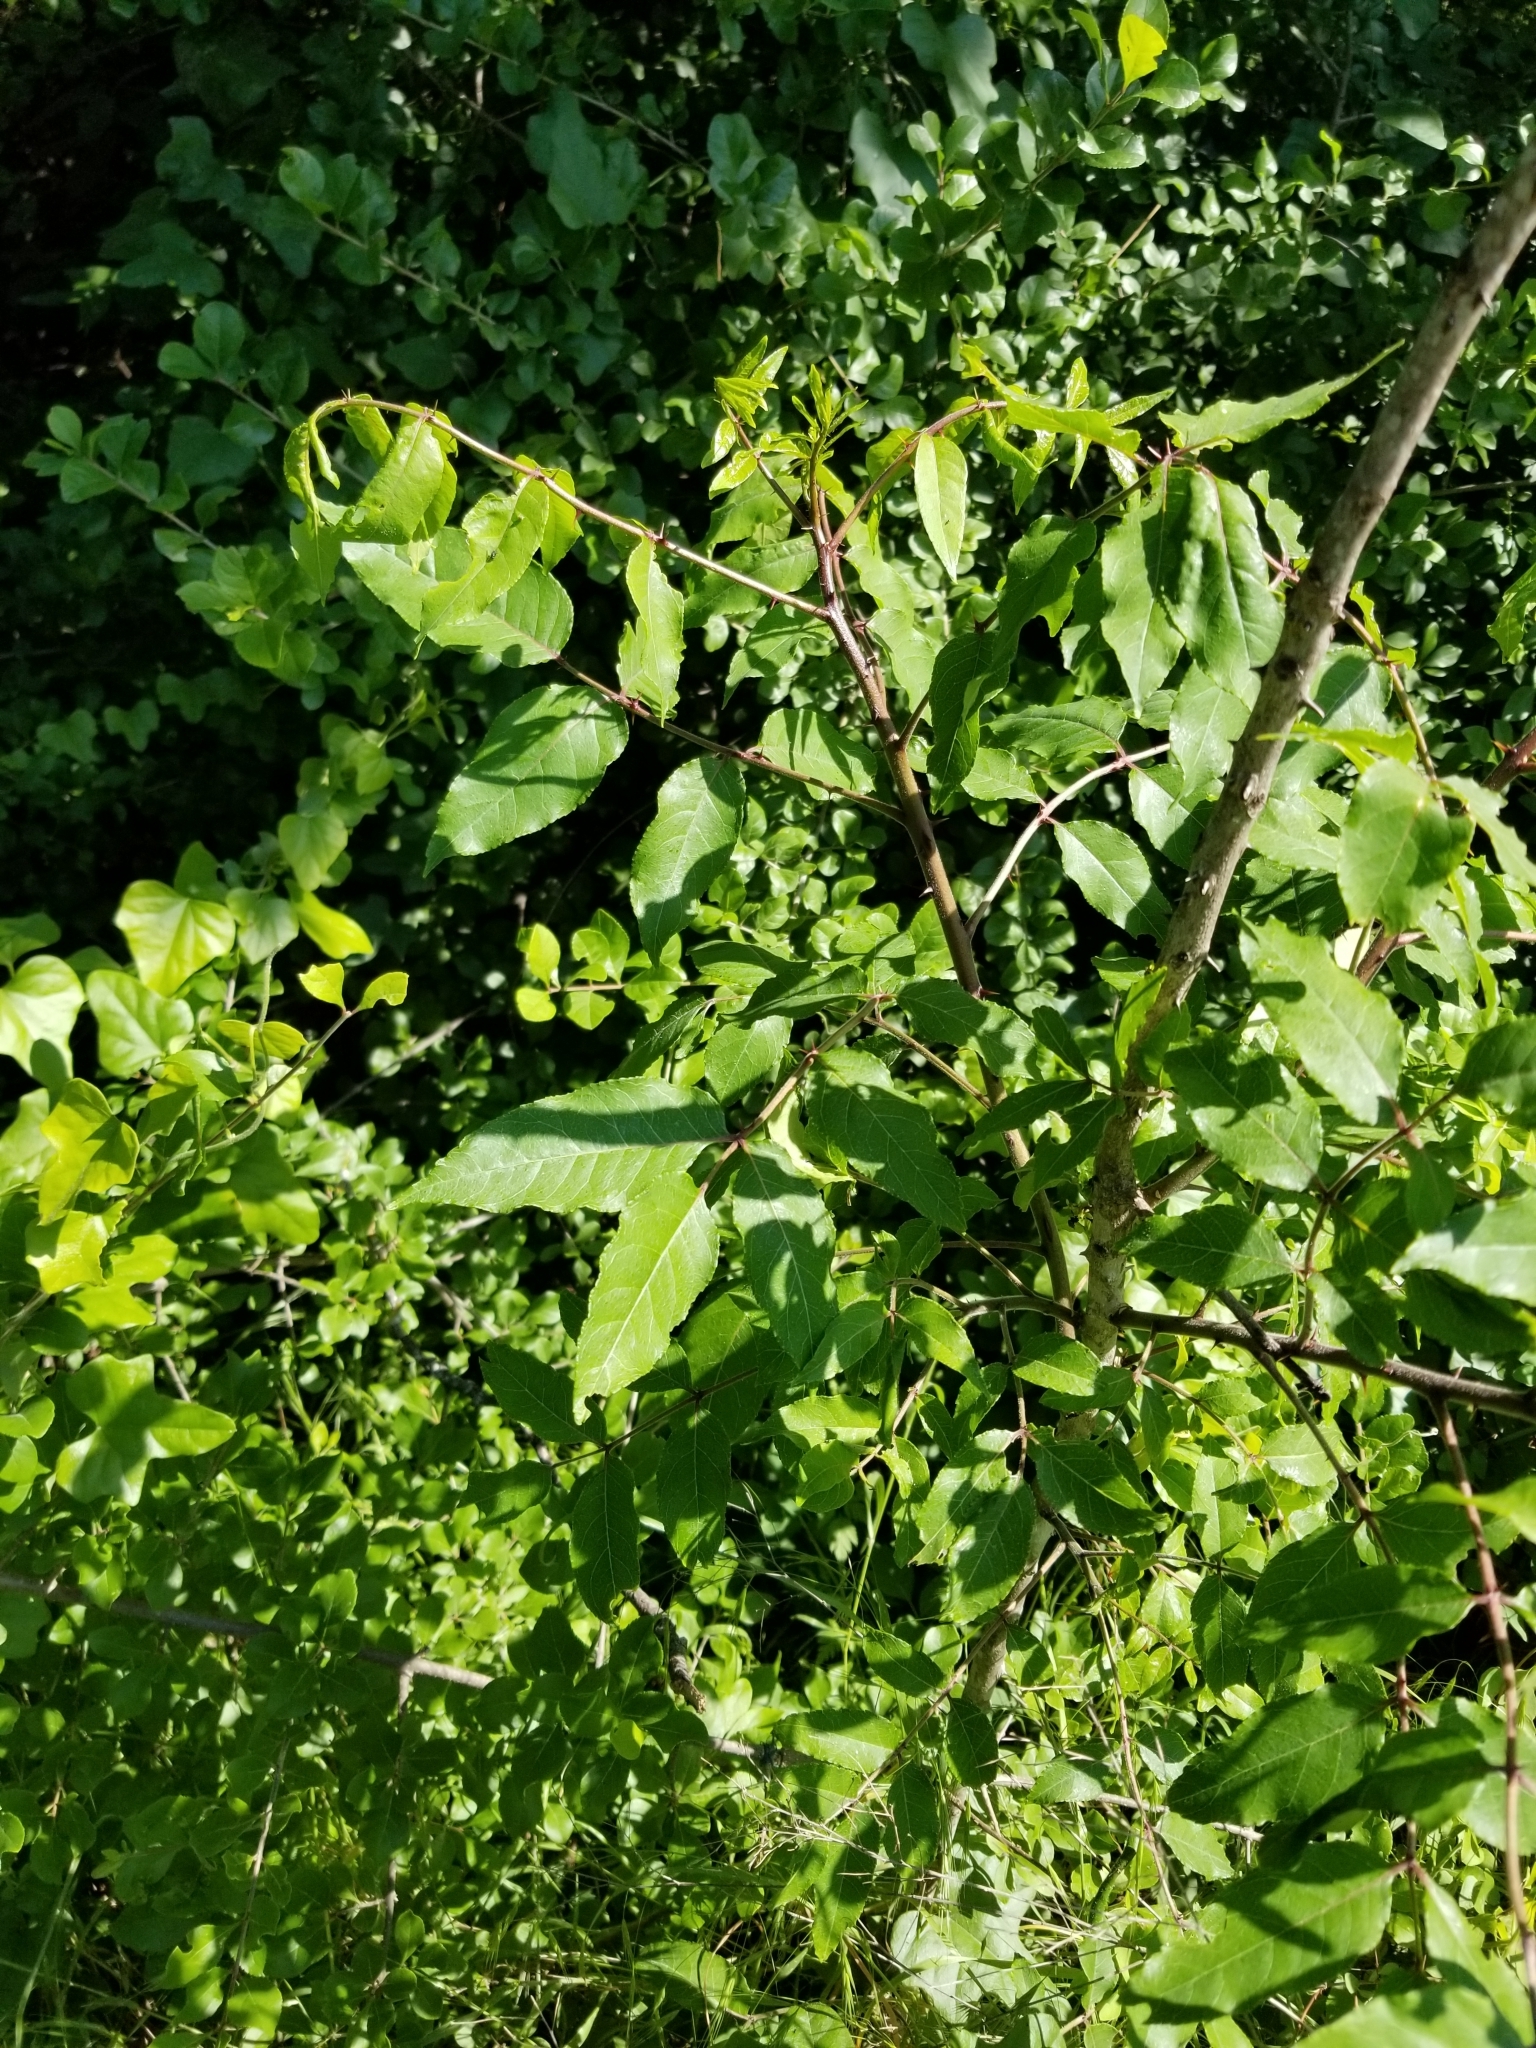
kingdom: Plantae
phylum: Tracheophyta
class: Magnoliopsida
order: Sapindales
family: Rutaceae
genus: Zanthoxylum
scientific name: Zanthoxylum clava-herculis
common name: Hercules'-club
